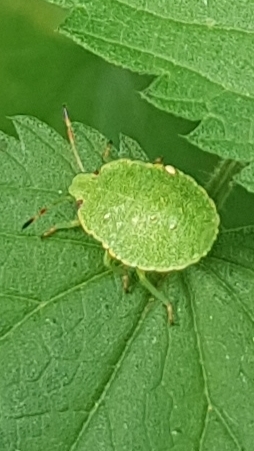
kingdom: Animalia
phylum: Arthropoda
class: Insecta
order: Hemiptera
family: Pentatomidae
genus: Palomena
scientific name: Palomena prasina
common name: Green shieldbug
